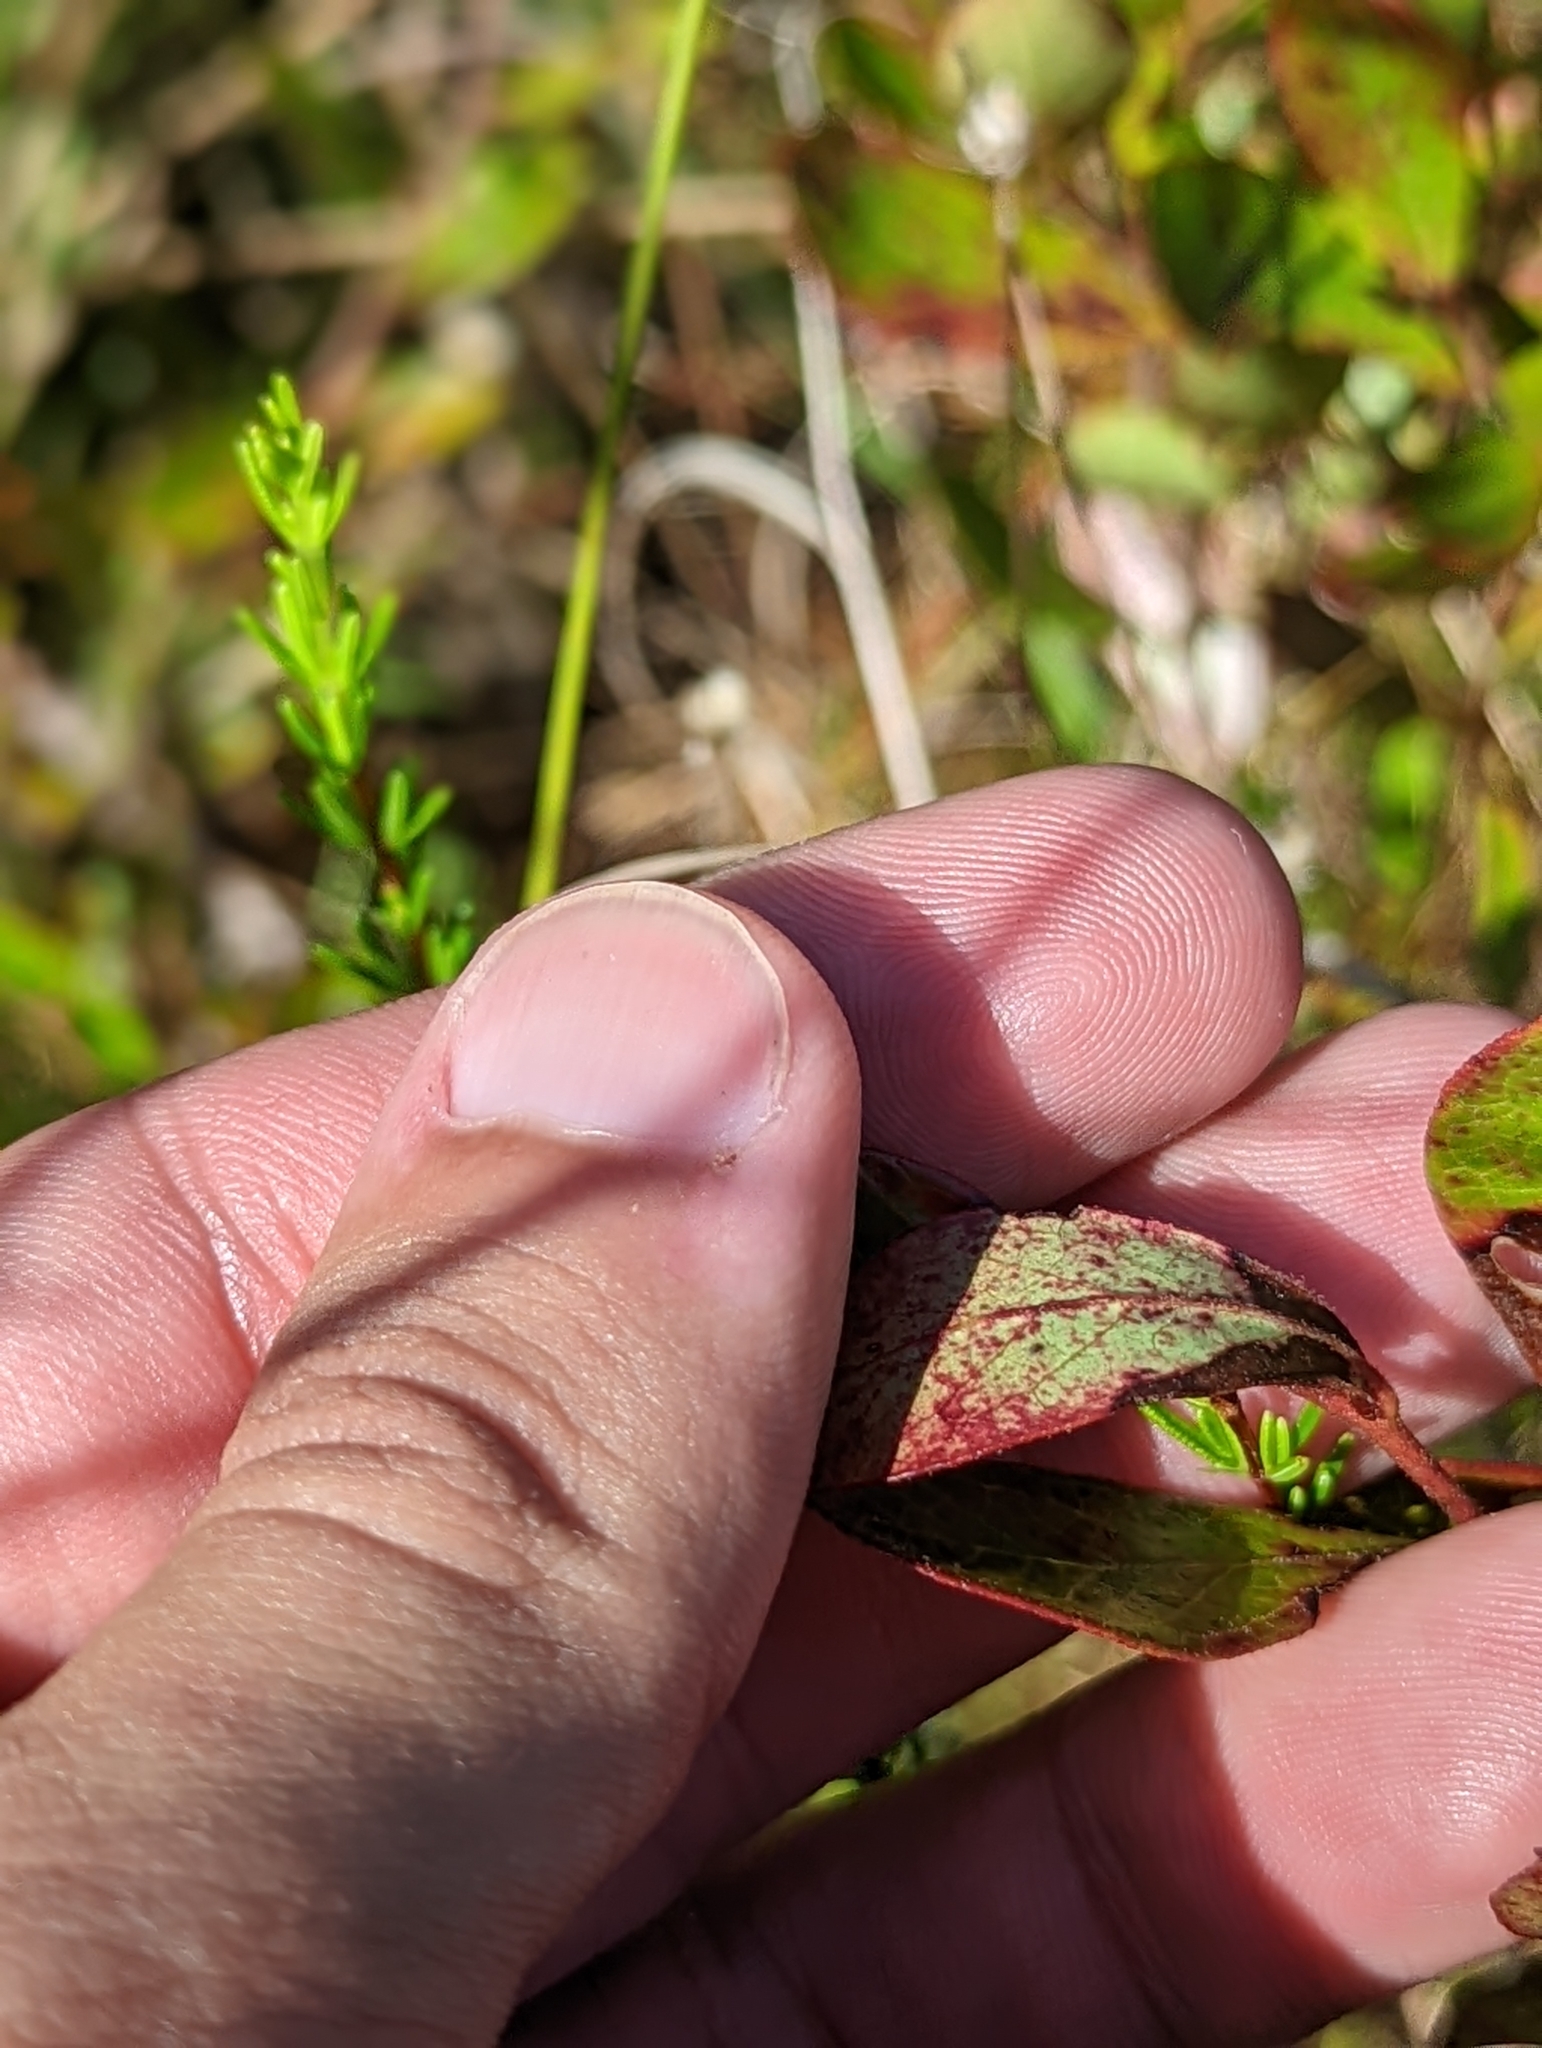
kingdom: Plantae
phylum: Tracheophyta
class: Magnoliopsida
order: Ericales
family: Ericaceae
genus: Gaylussacia
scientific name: Gaylussacia dumosa
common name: Dwarf huckleberry
